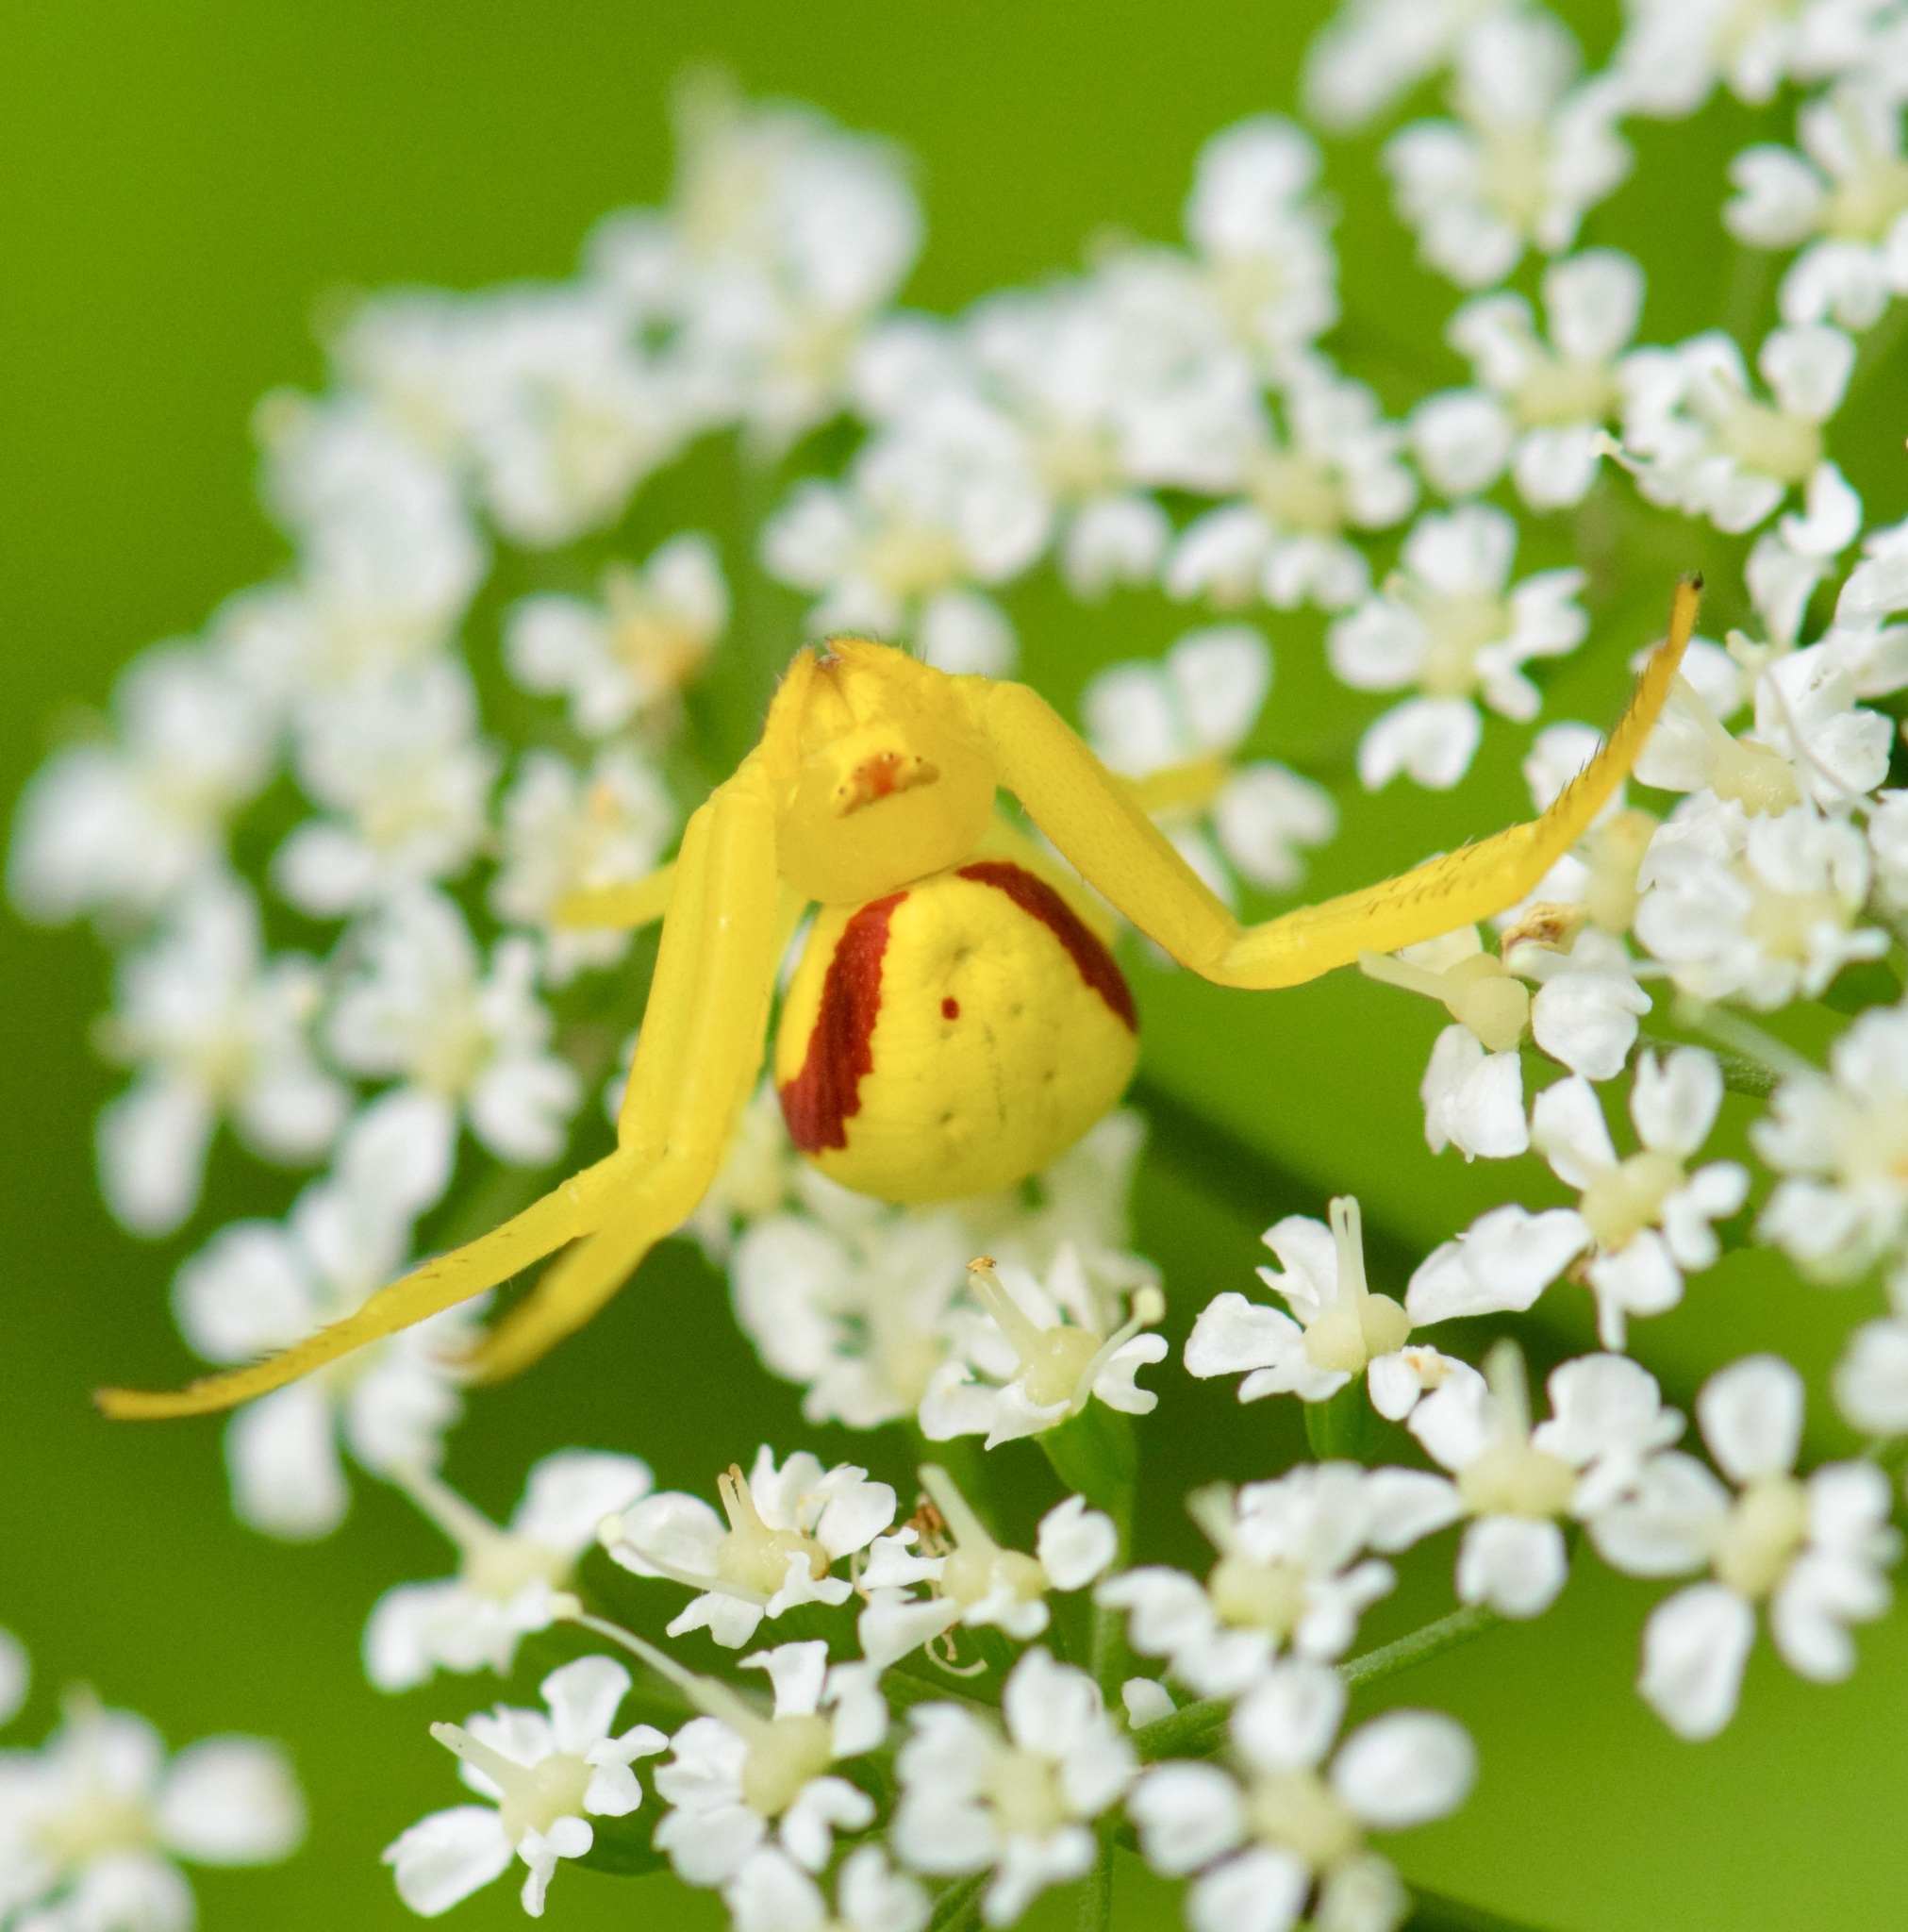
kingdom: Animalia
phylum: Arthropoda
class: Arachnida
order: Araneae
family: Thomisidae
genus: Misumena
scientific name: Misumena vatia
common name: Goldenrod crab spider
